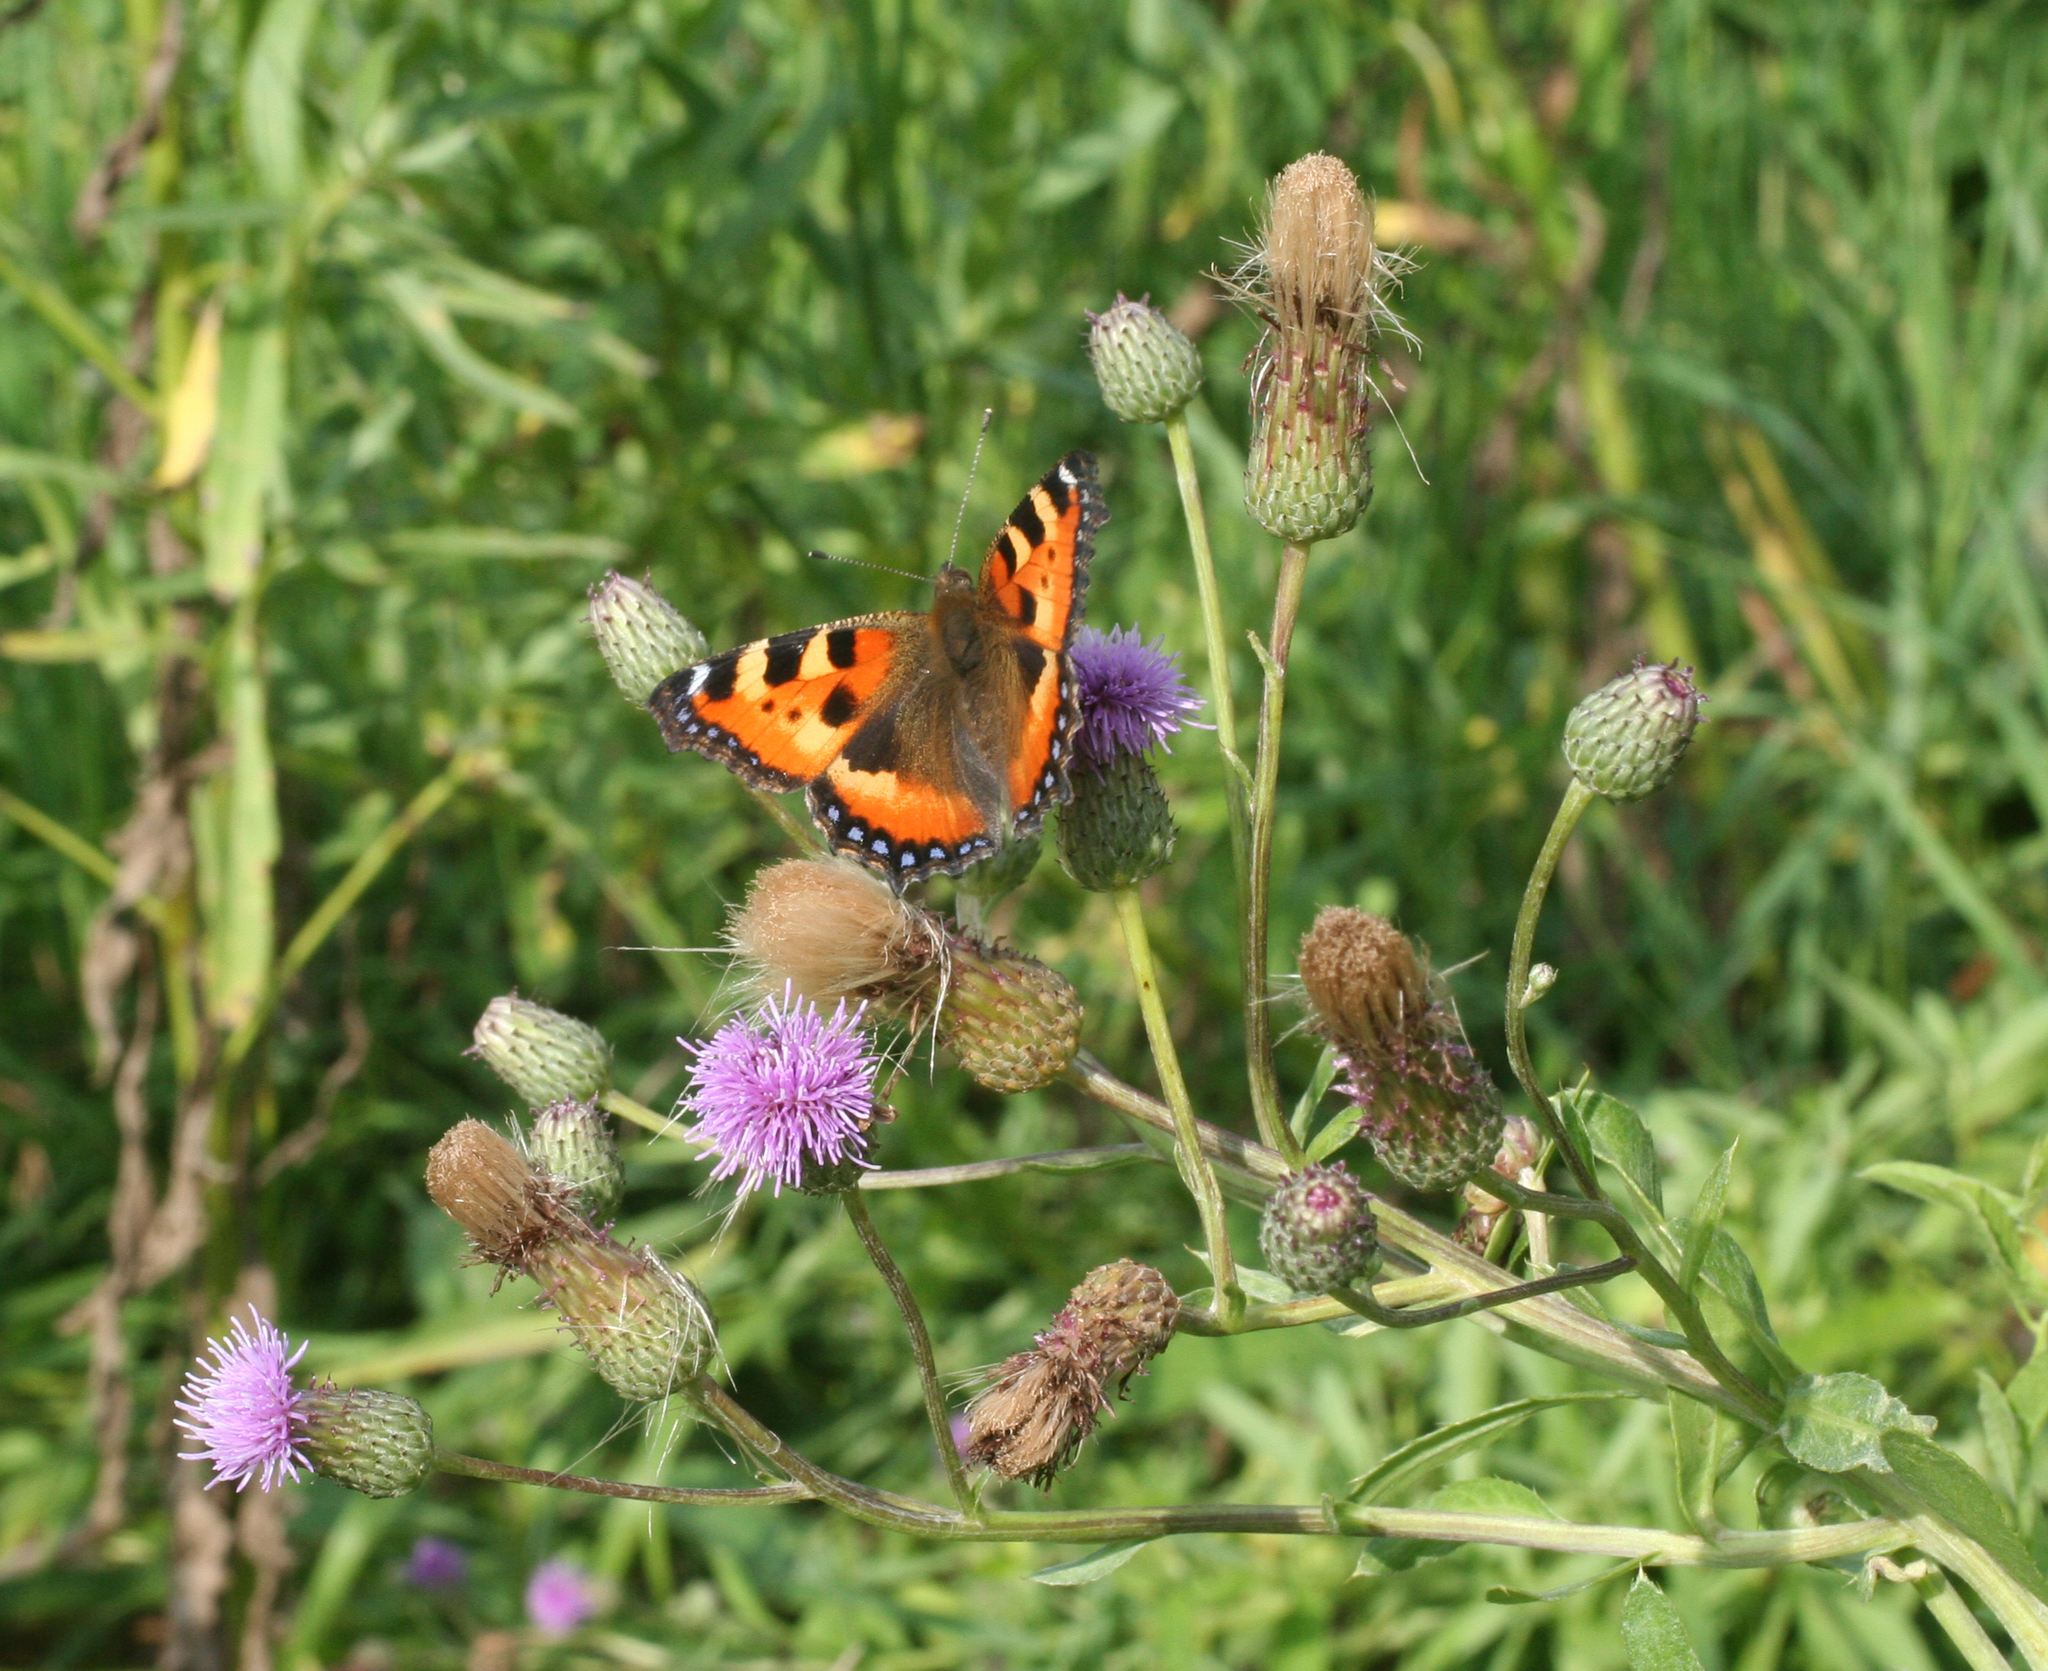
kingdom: Plantae
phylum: Tracheophyta
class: Magnoliopsida
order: Asterales
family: Asteraceae
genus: Cirsium
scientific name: Cirsium arvense
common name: Creeping thistle
